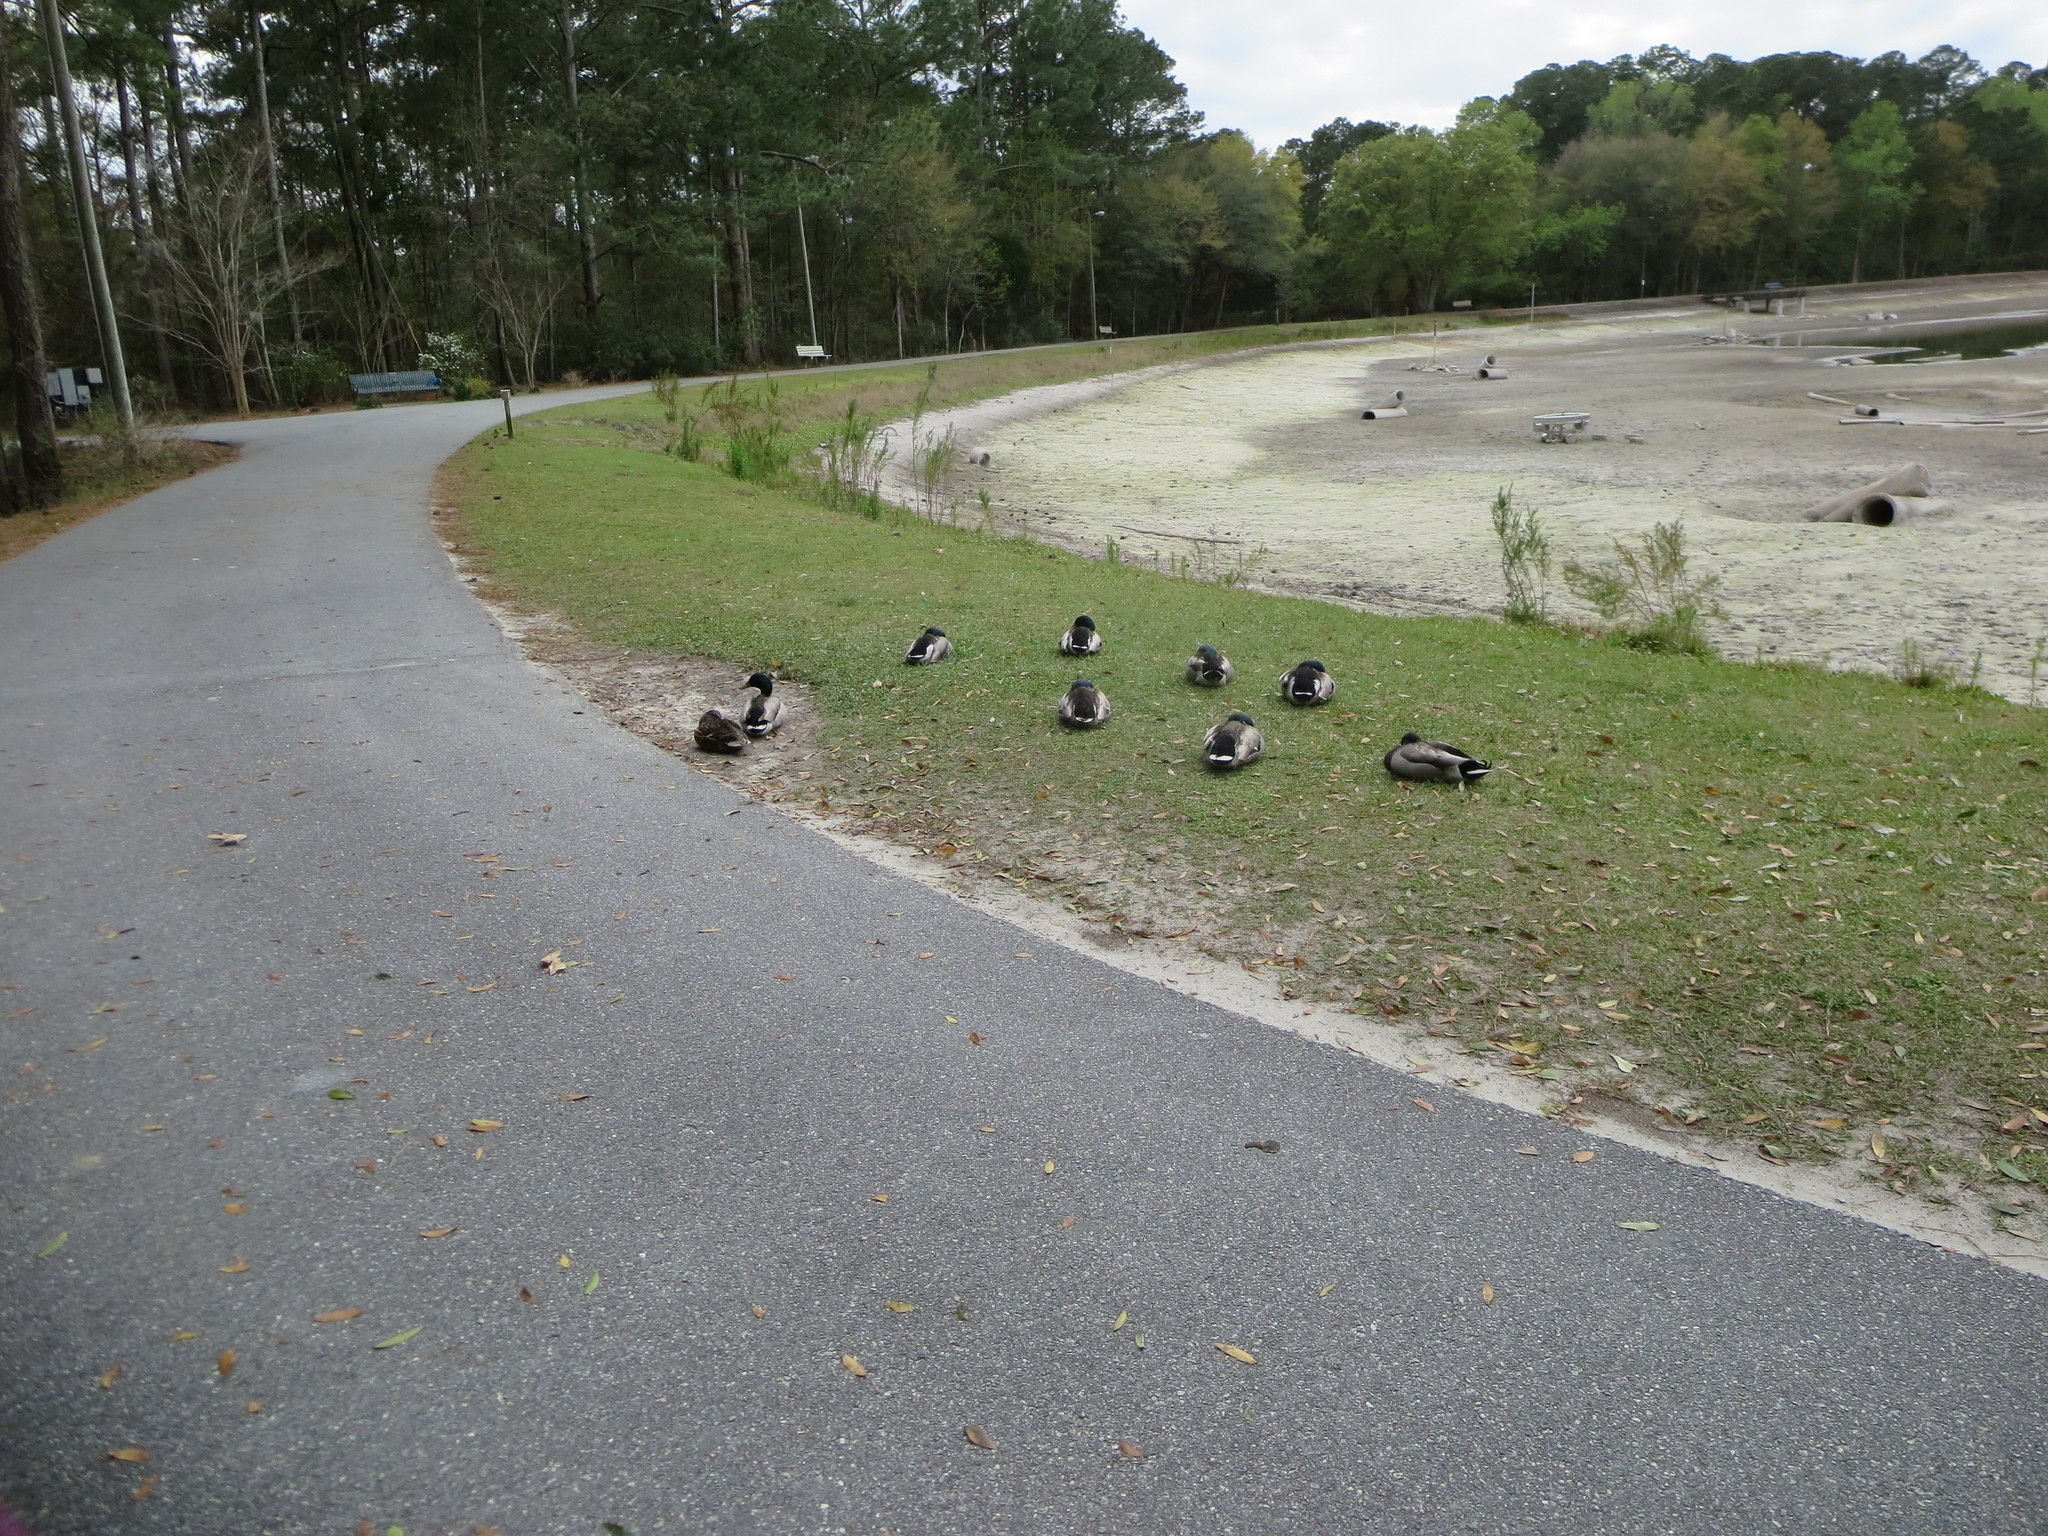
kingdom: Animalia
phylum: Chordata
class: Aves
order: Anseriformes
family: Anatidae
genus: Anas
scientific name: Anas platyrhynchos
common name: Mallard
